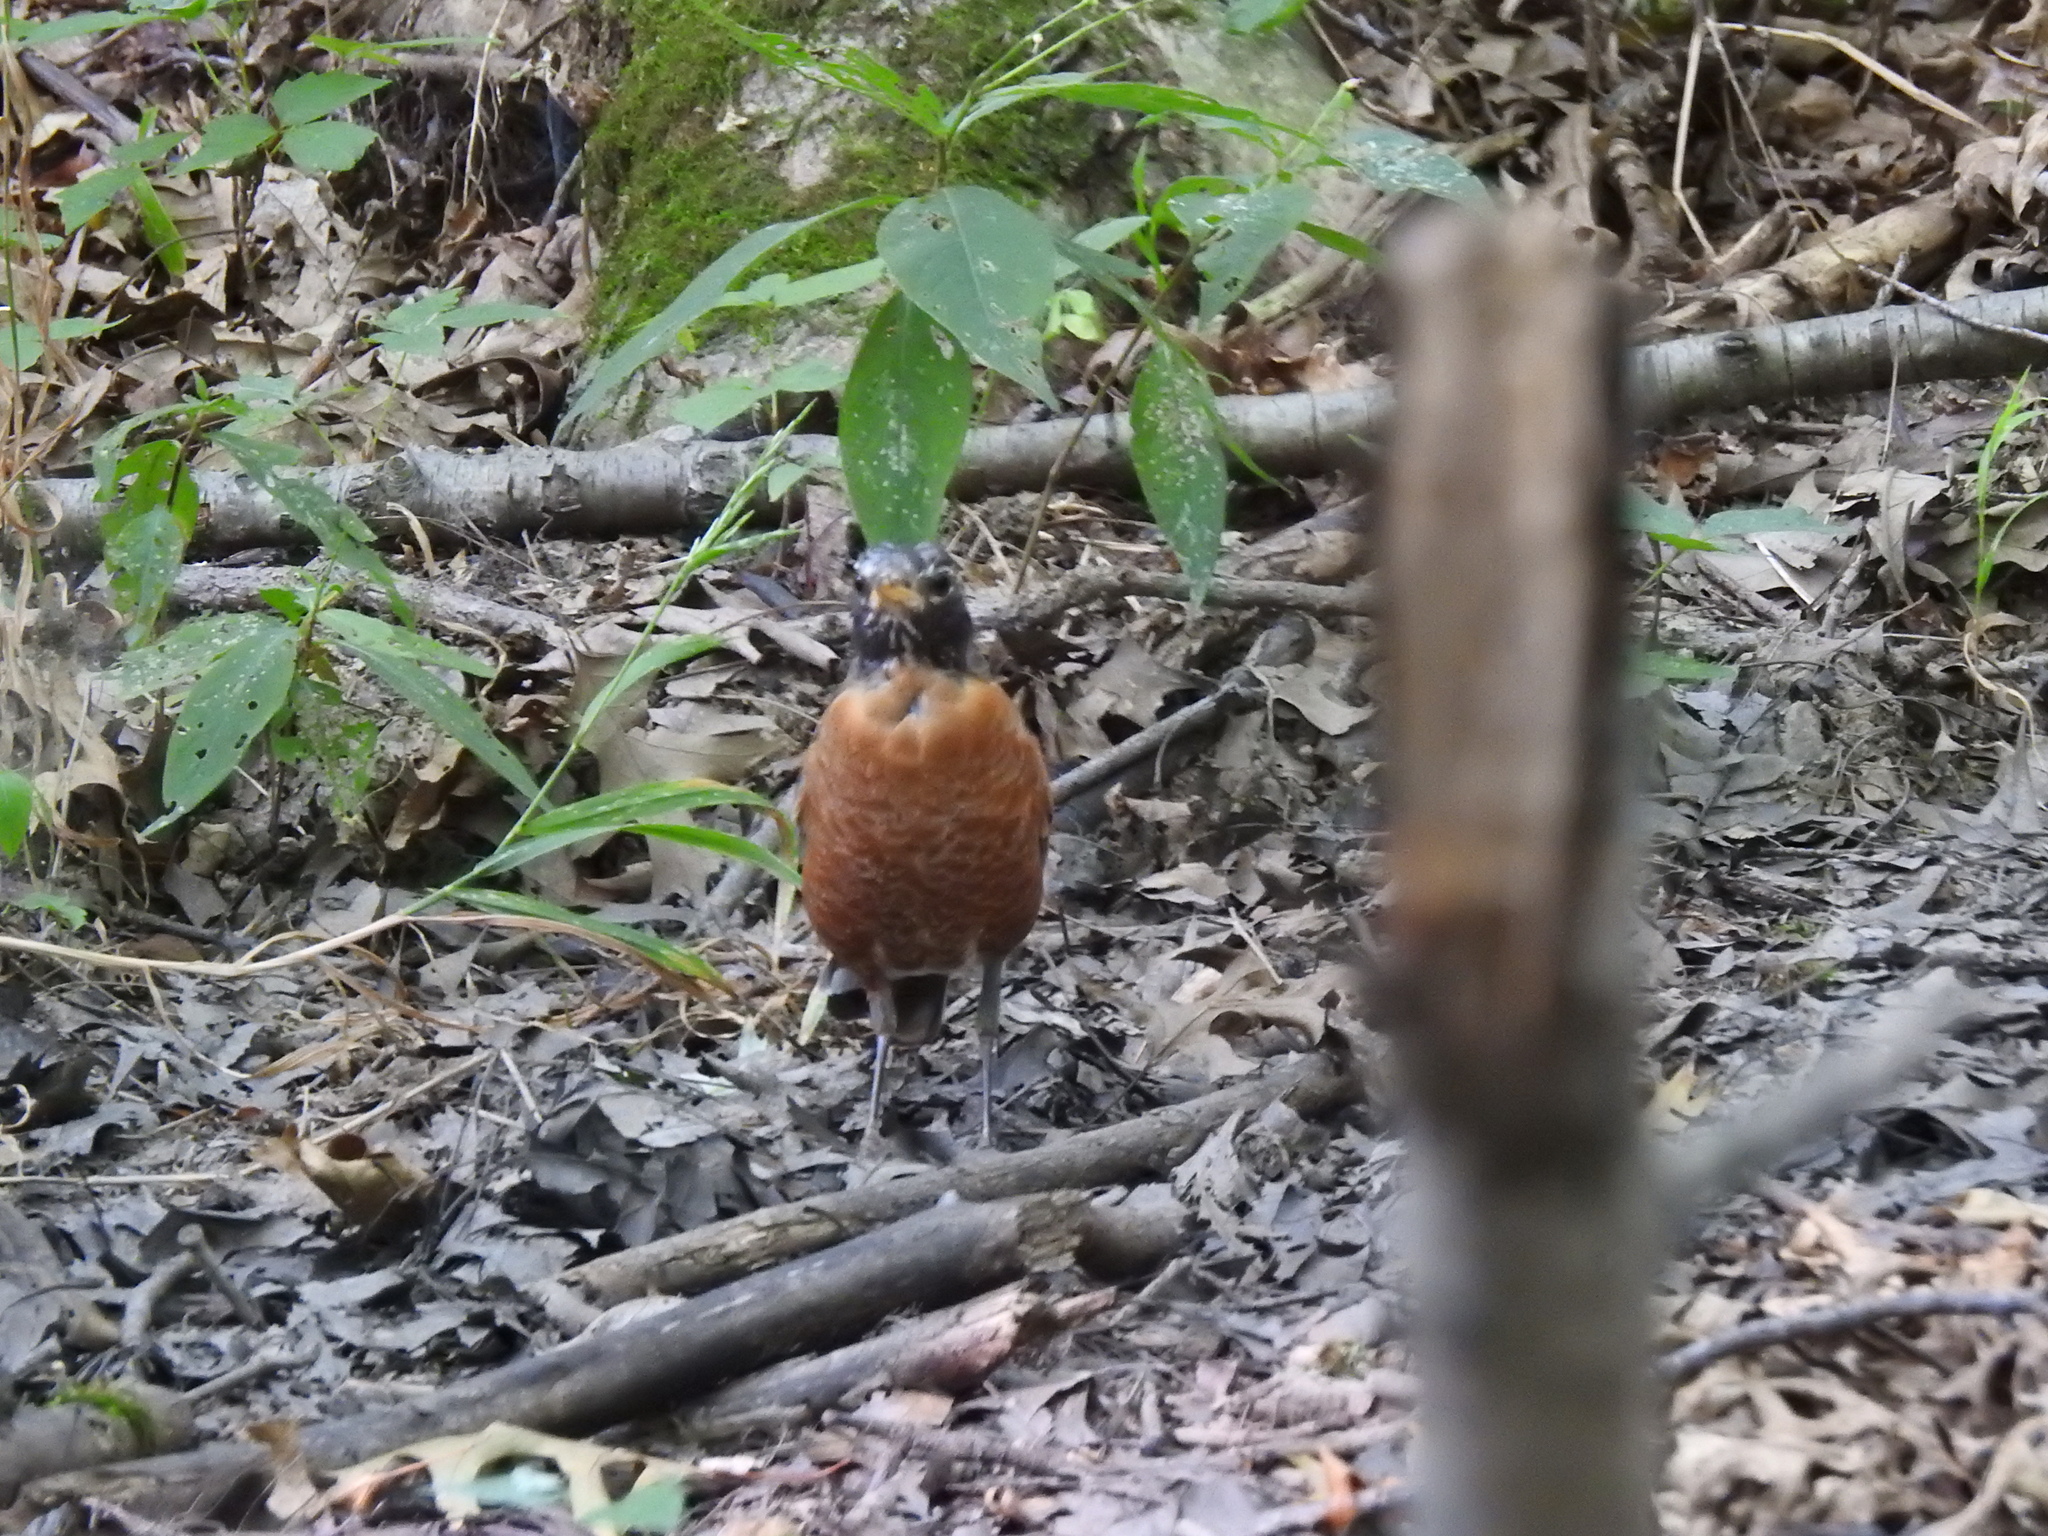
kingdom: Animalia
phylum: Chordata
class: Aves
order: Passeriformes
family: Turdidae
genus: Turdus
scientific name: Turdus migratorius
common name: American robin
